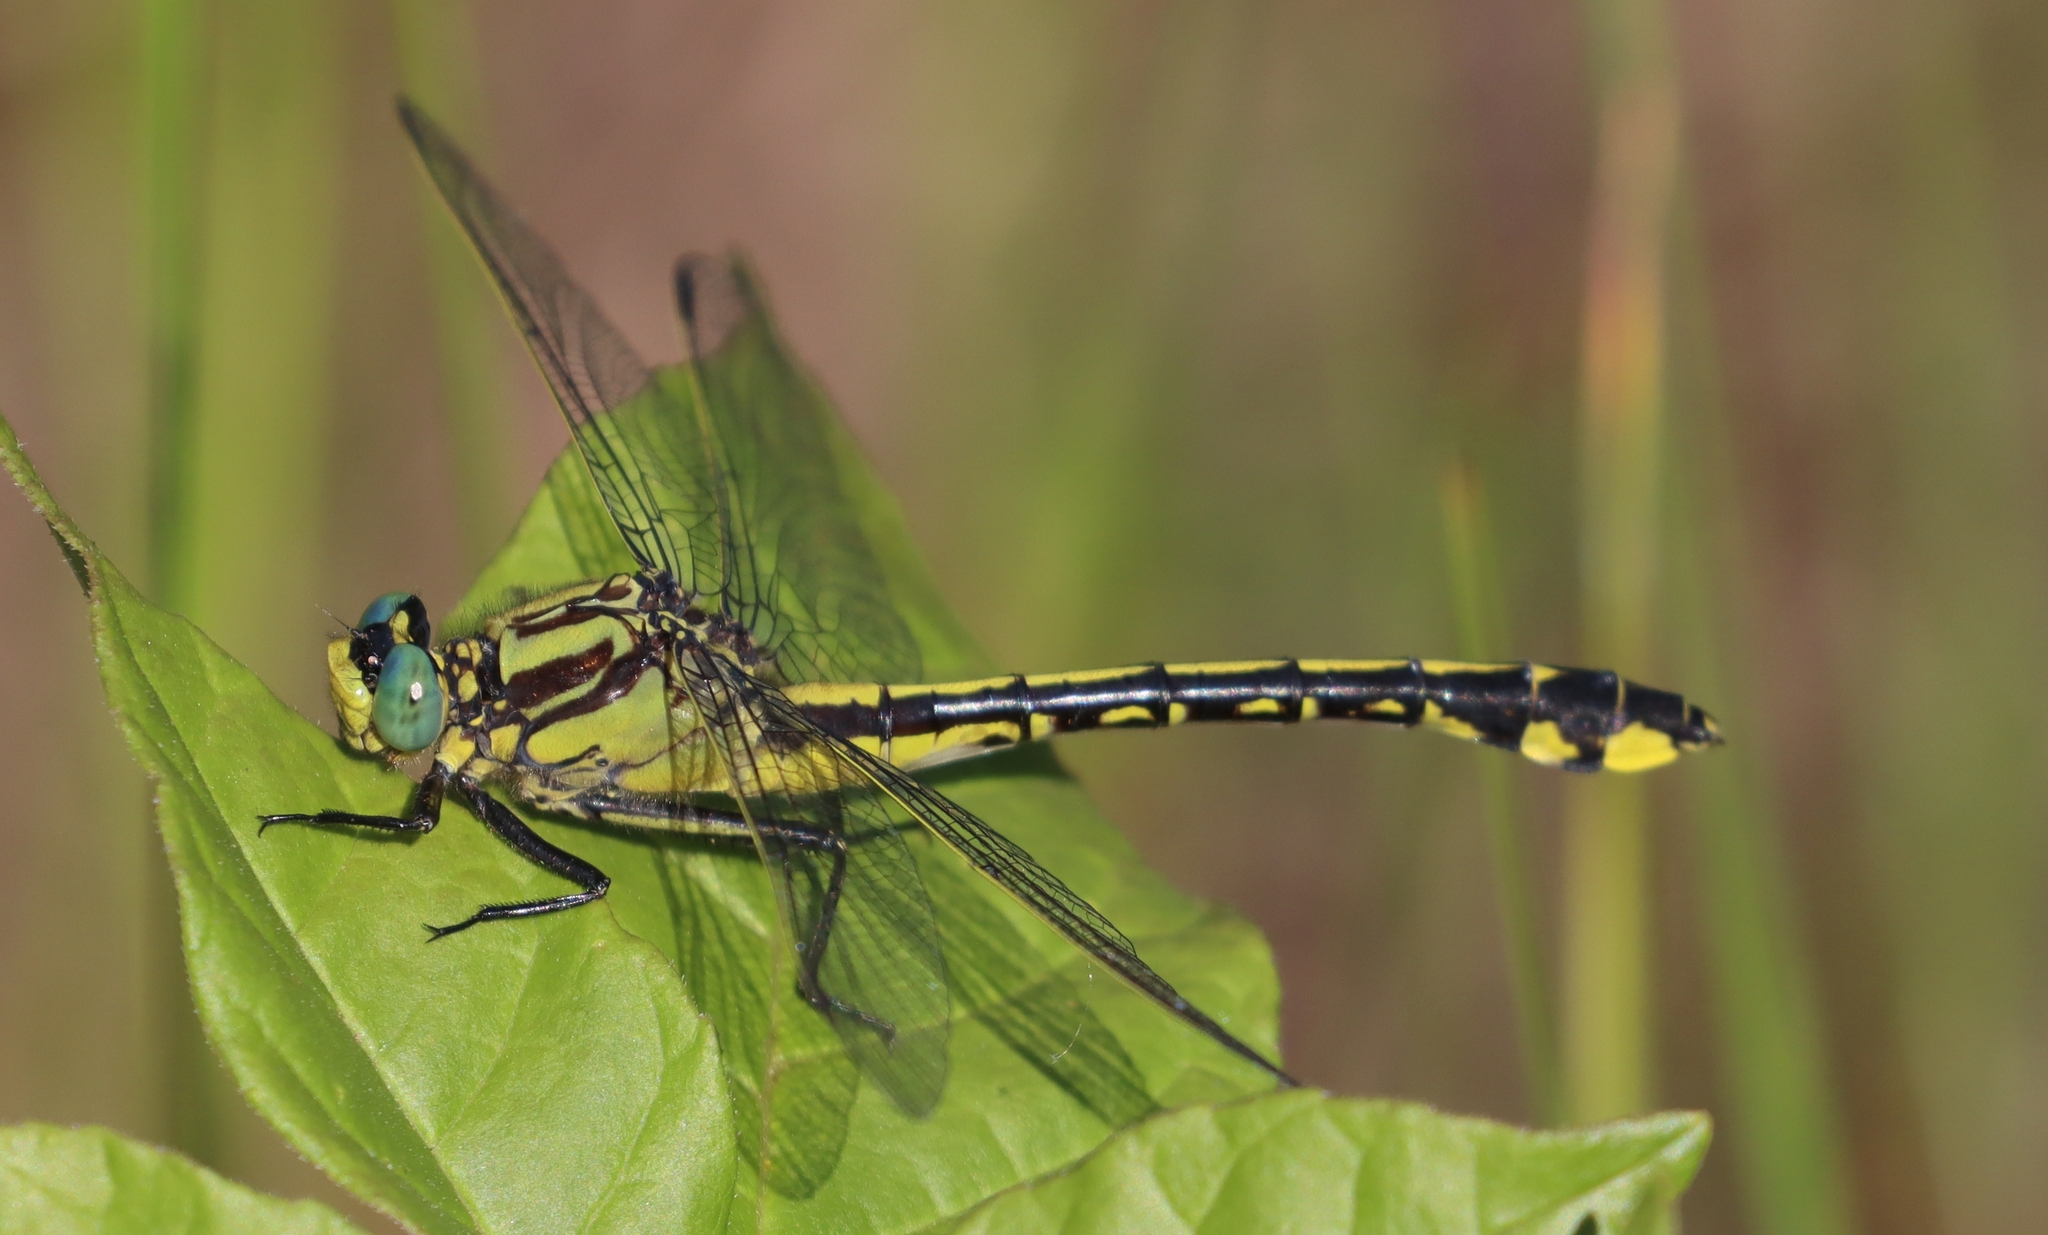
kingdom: Animalia
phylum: Arthropoda
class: Insecta
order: Odonata
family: Gomphidae
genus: Gomphurus
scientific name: Gomphurus fraternus
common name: Midland clubtail
